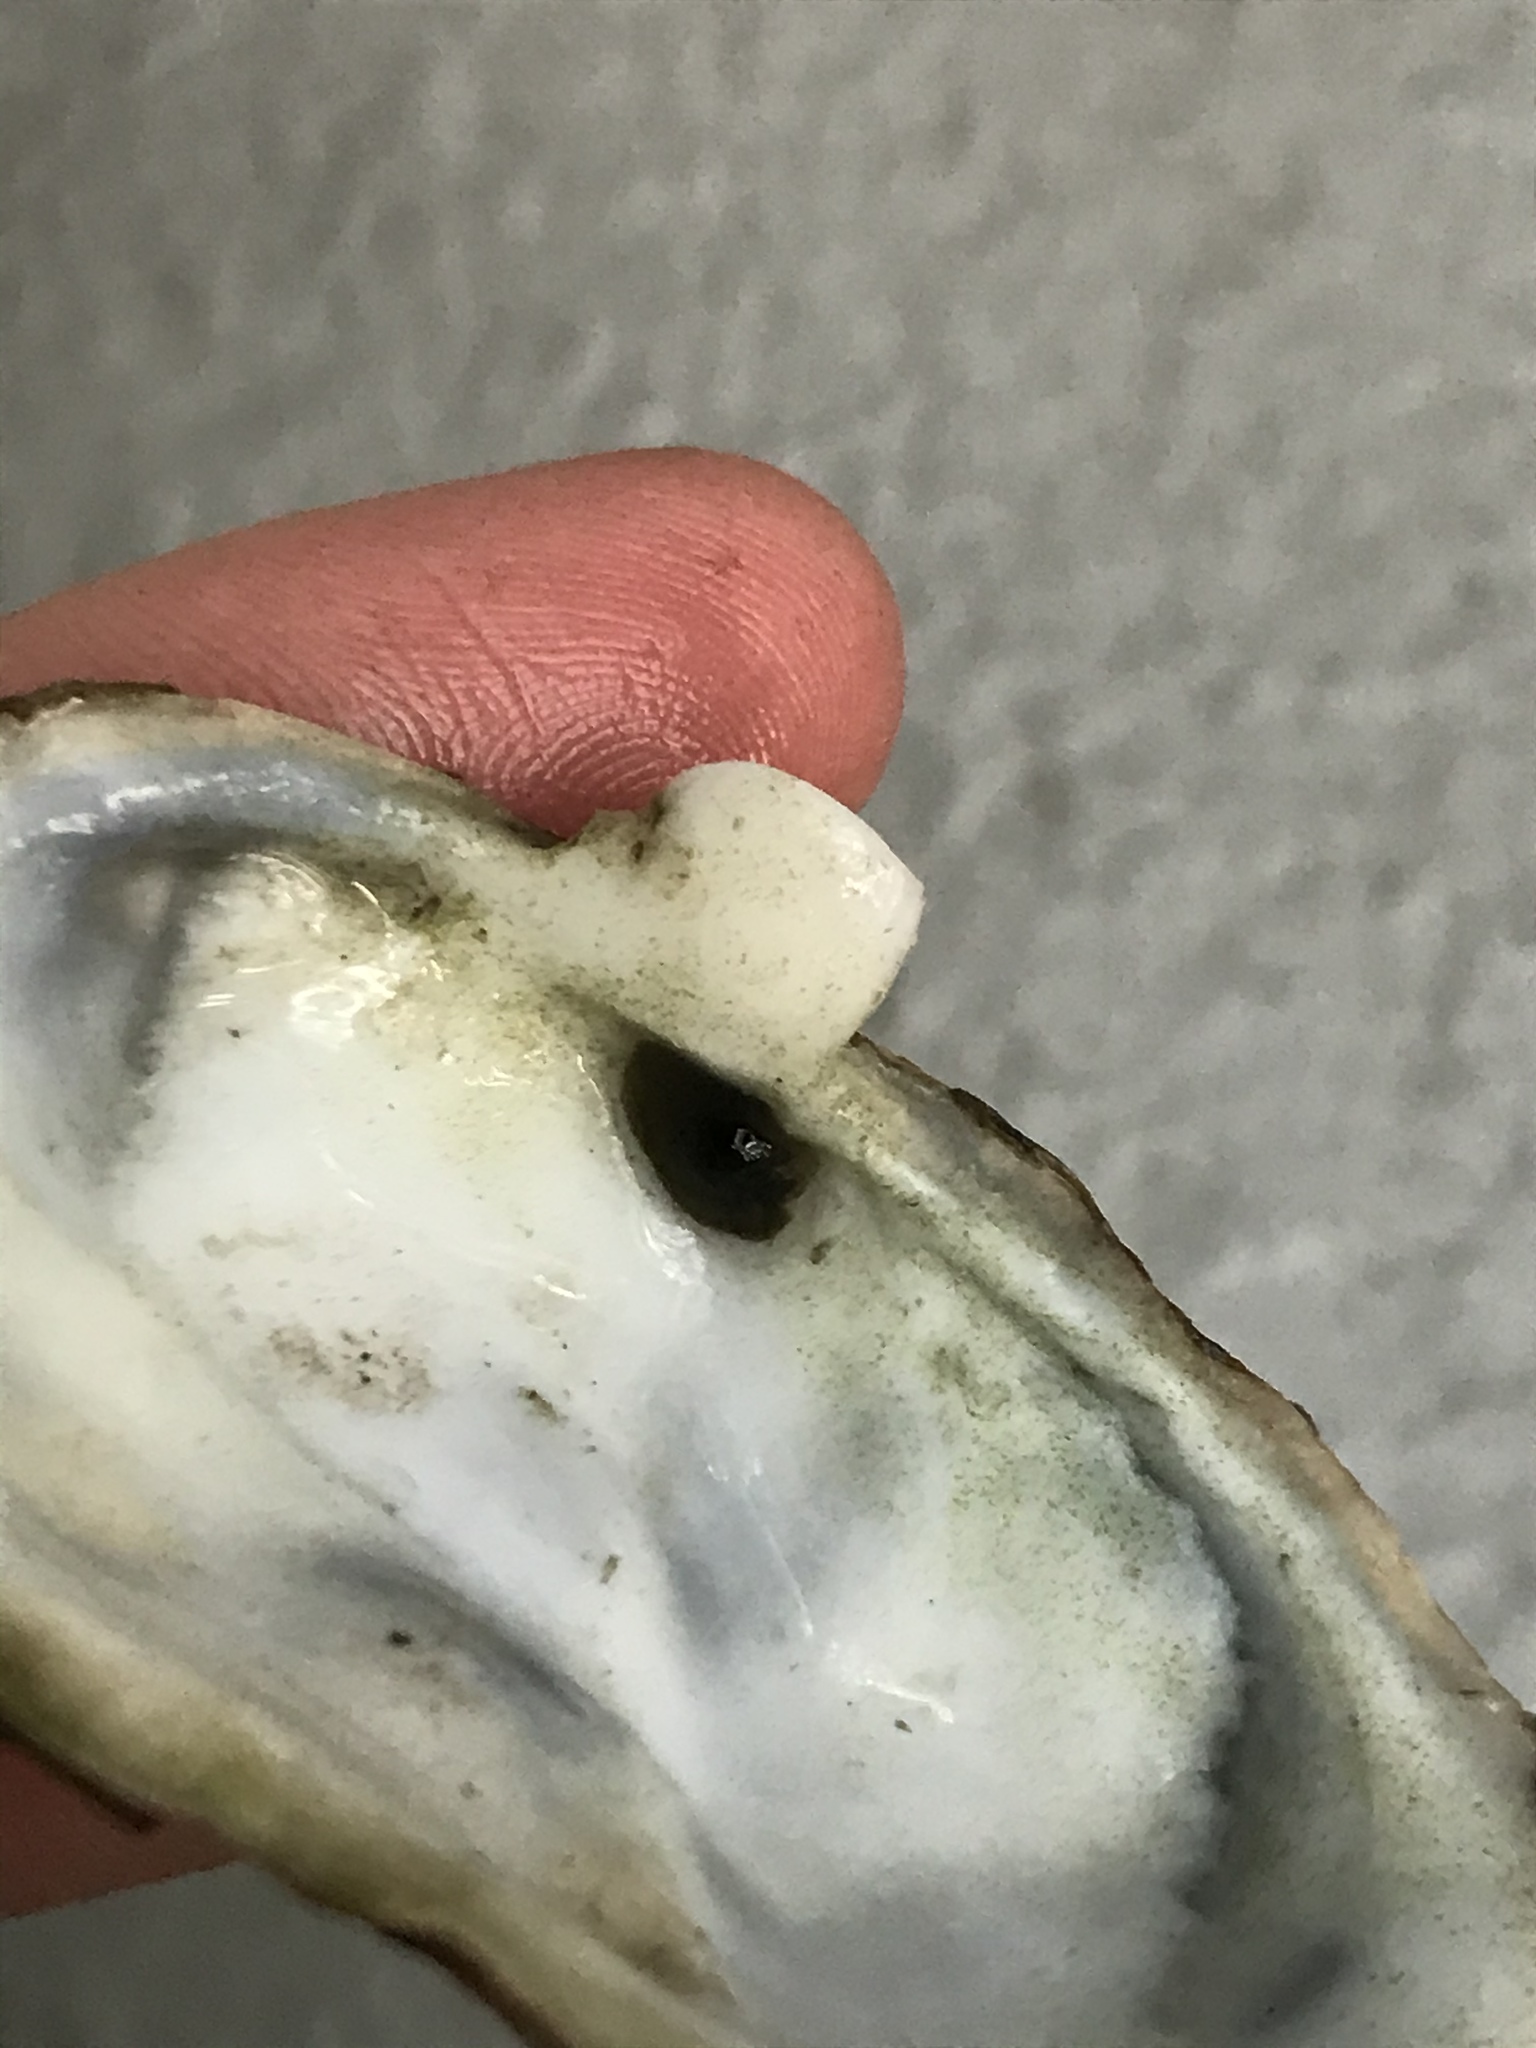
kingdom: Animalia
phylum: Mollusca
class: Bivalvia
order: Myida
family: Myidae
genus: Mya
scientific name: Mya arenaria
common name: Soft-shelled clam
